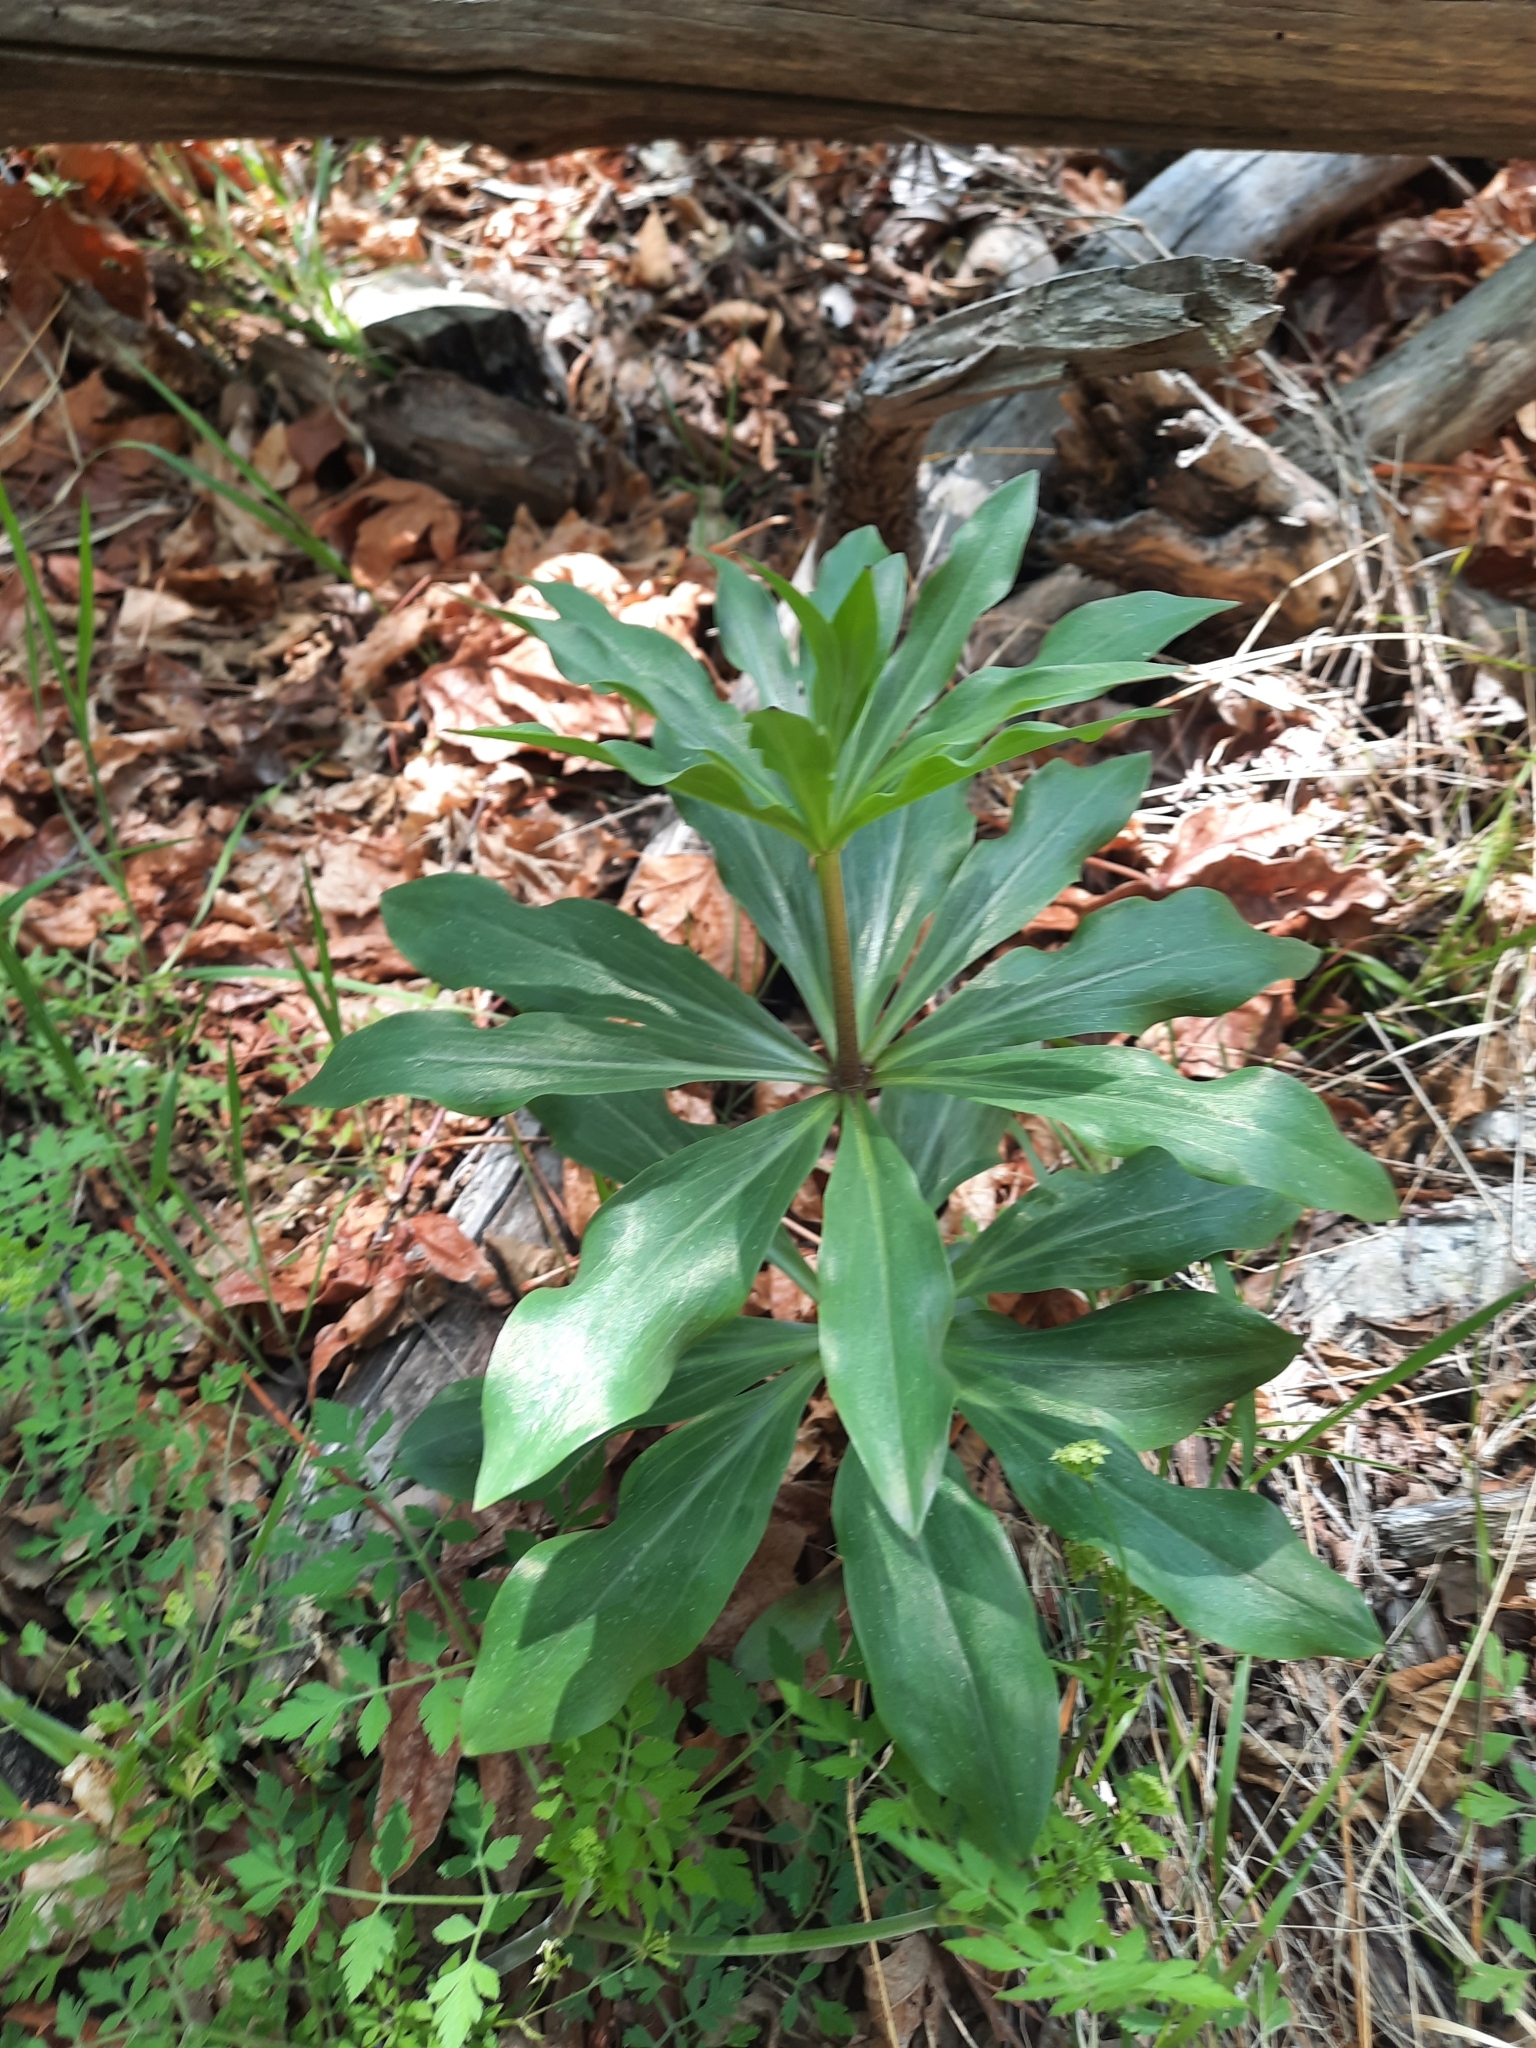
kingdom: Plantae
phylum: Tracheophyta
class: Liliopsida
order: Liliales
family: Liliaceae
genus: Lilium
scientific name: Lilium humboldtii
